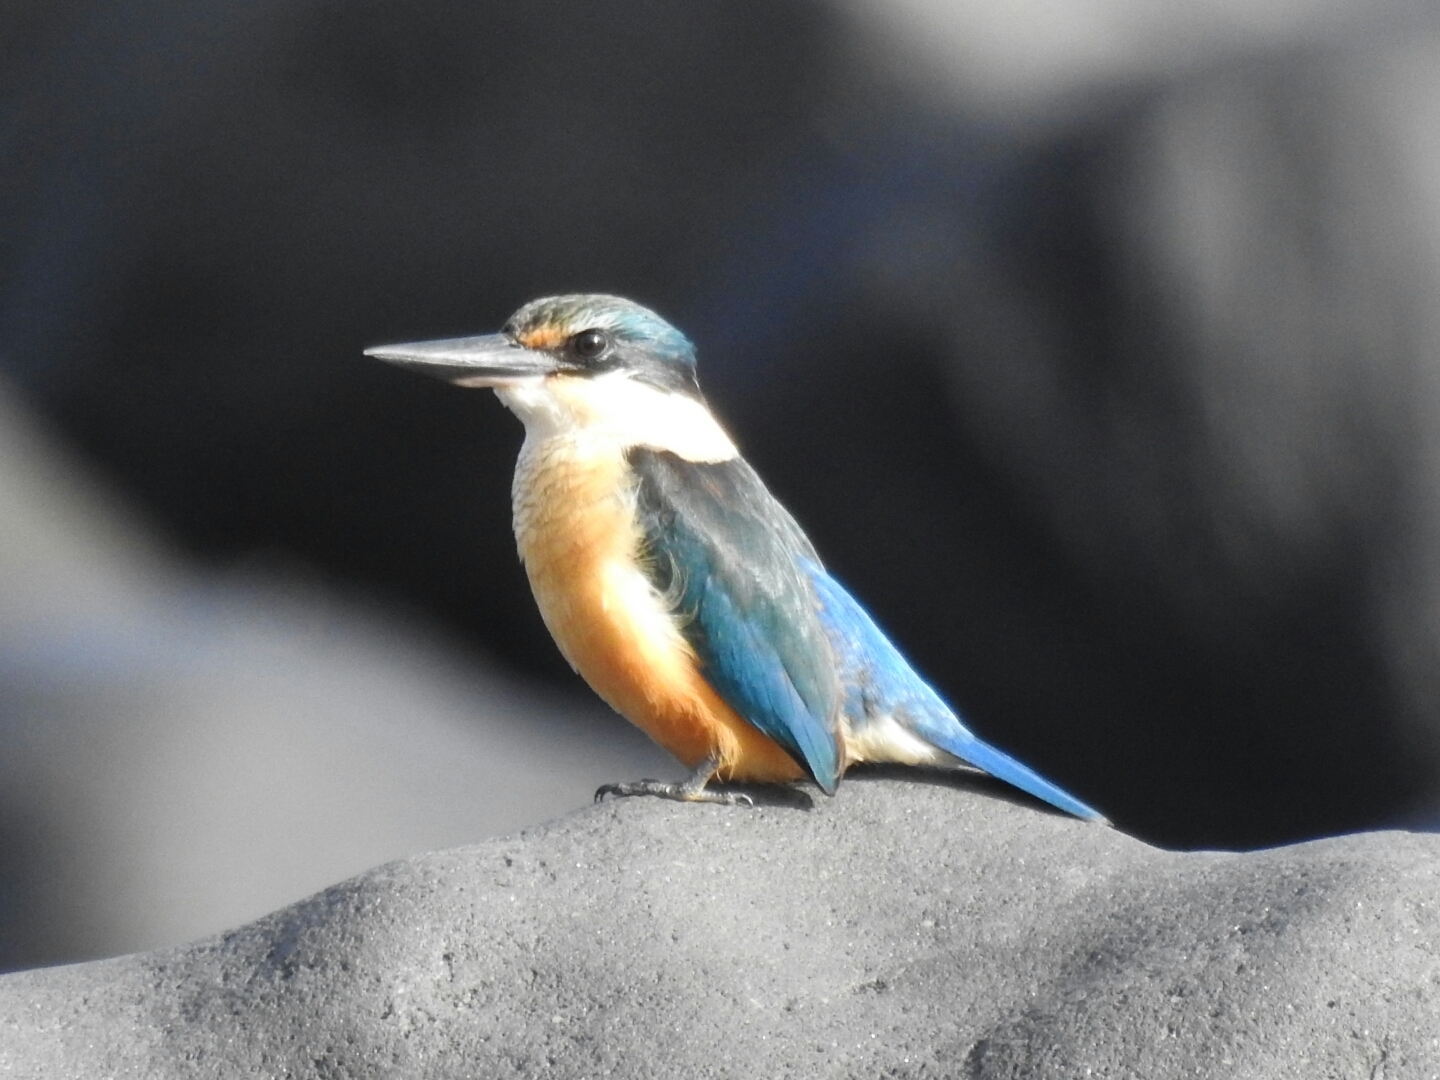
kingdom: Animalia
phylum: Chordata
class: Aves
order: Coraciiformes
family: Alcedinidae
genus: Todiramphus
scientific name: Todiramphus sanctus
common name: Sacred kingfisher
